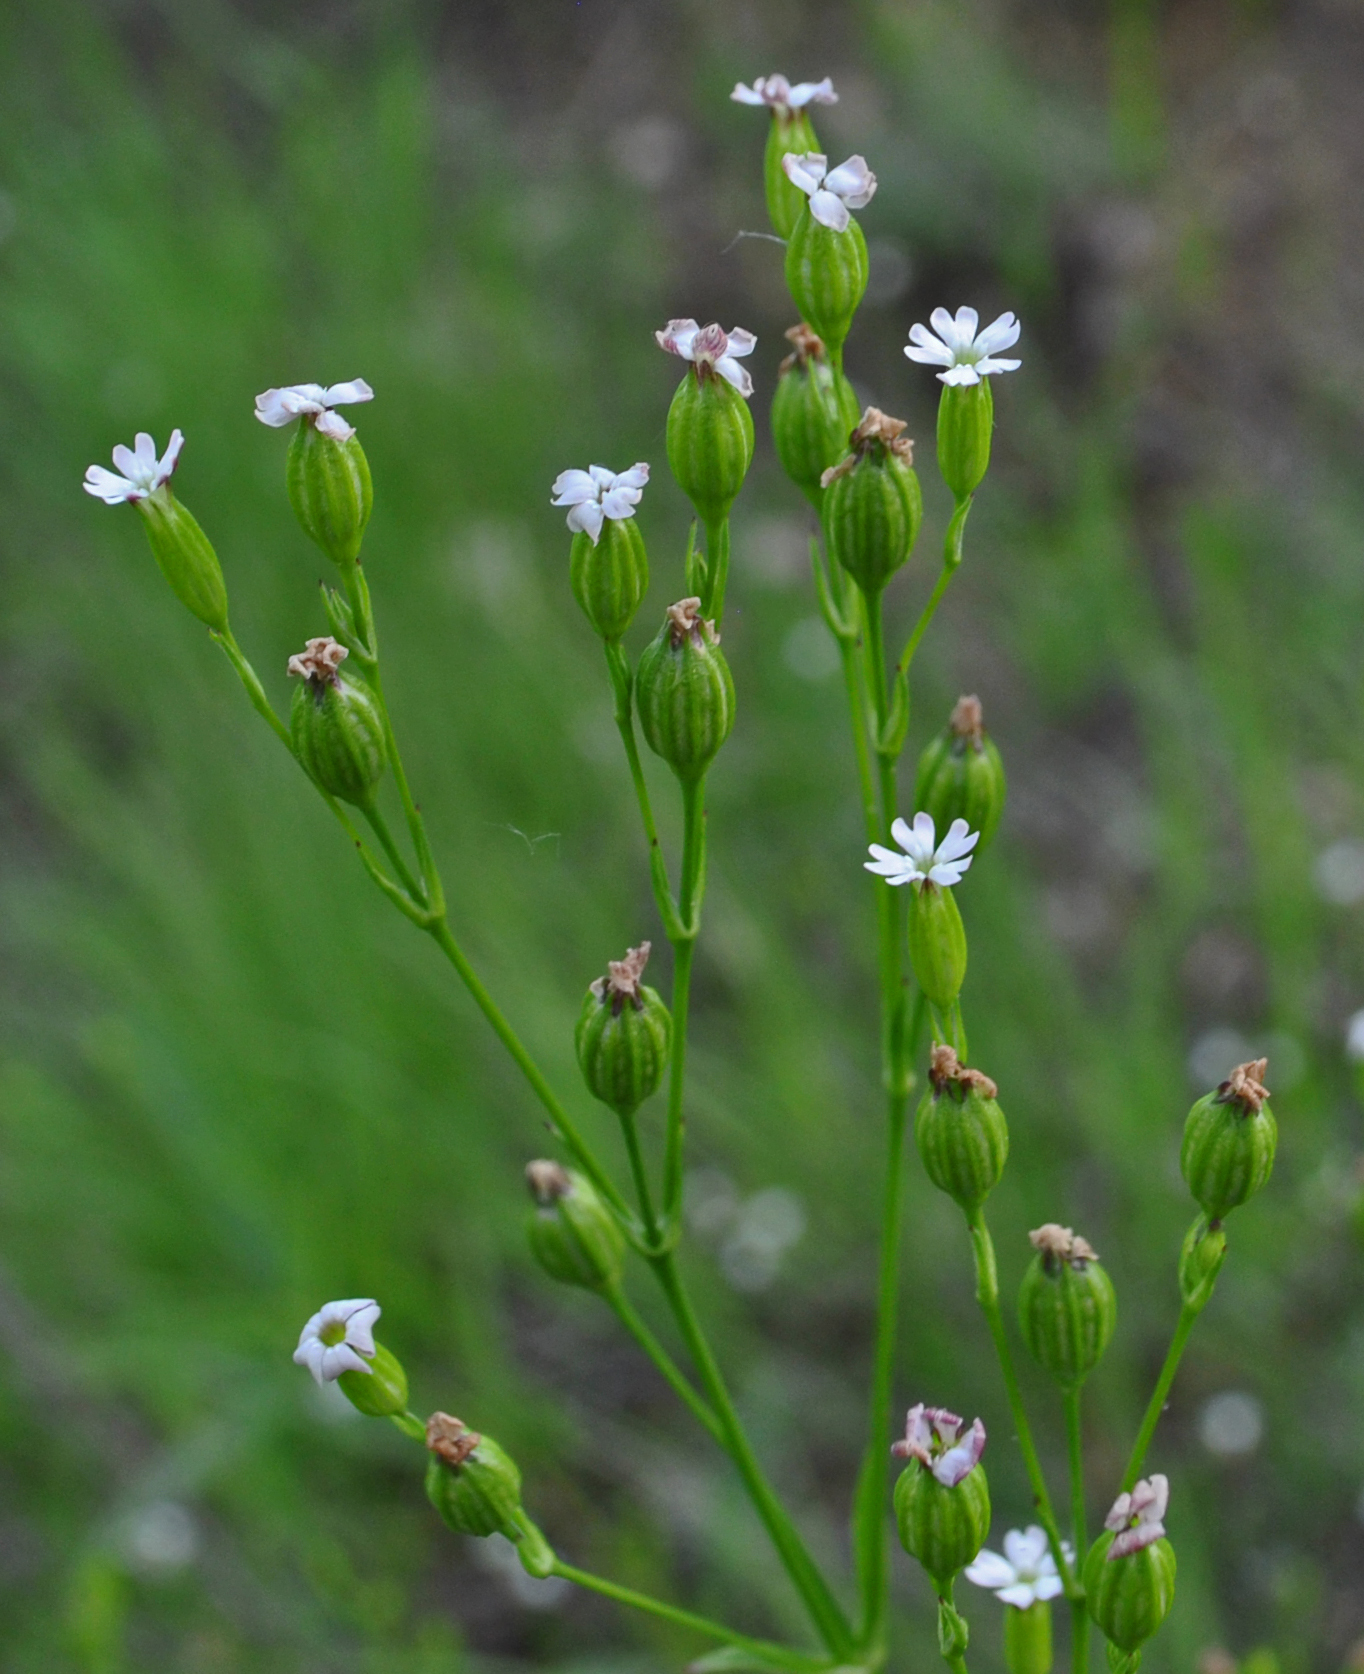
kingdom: Plantae
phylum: Tracheophyta
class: Magnoliopsida
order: Caryophyllales
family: Caryophyllaceae
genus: Silene
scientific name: Silene antirrhina
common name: Sleepy catchfly
